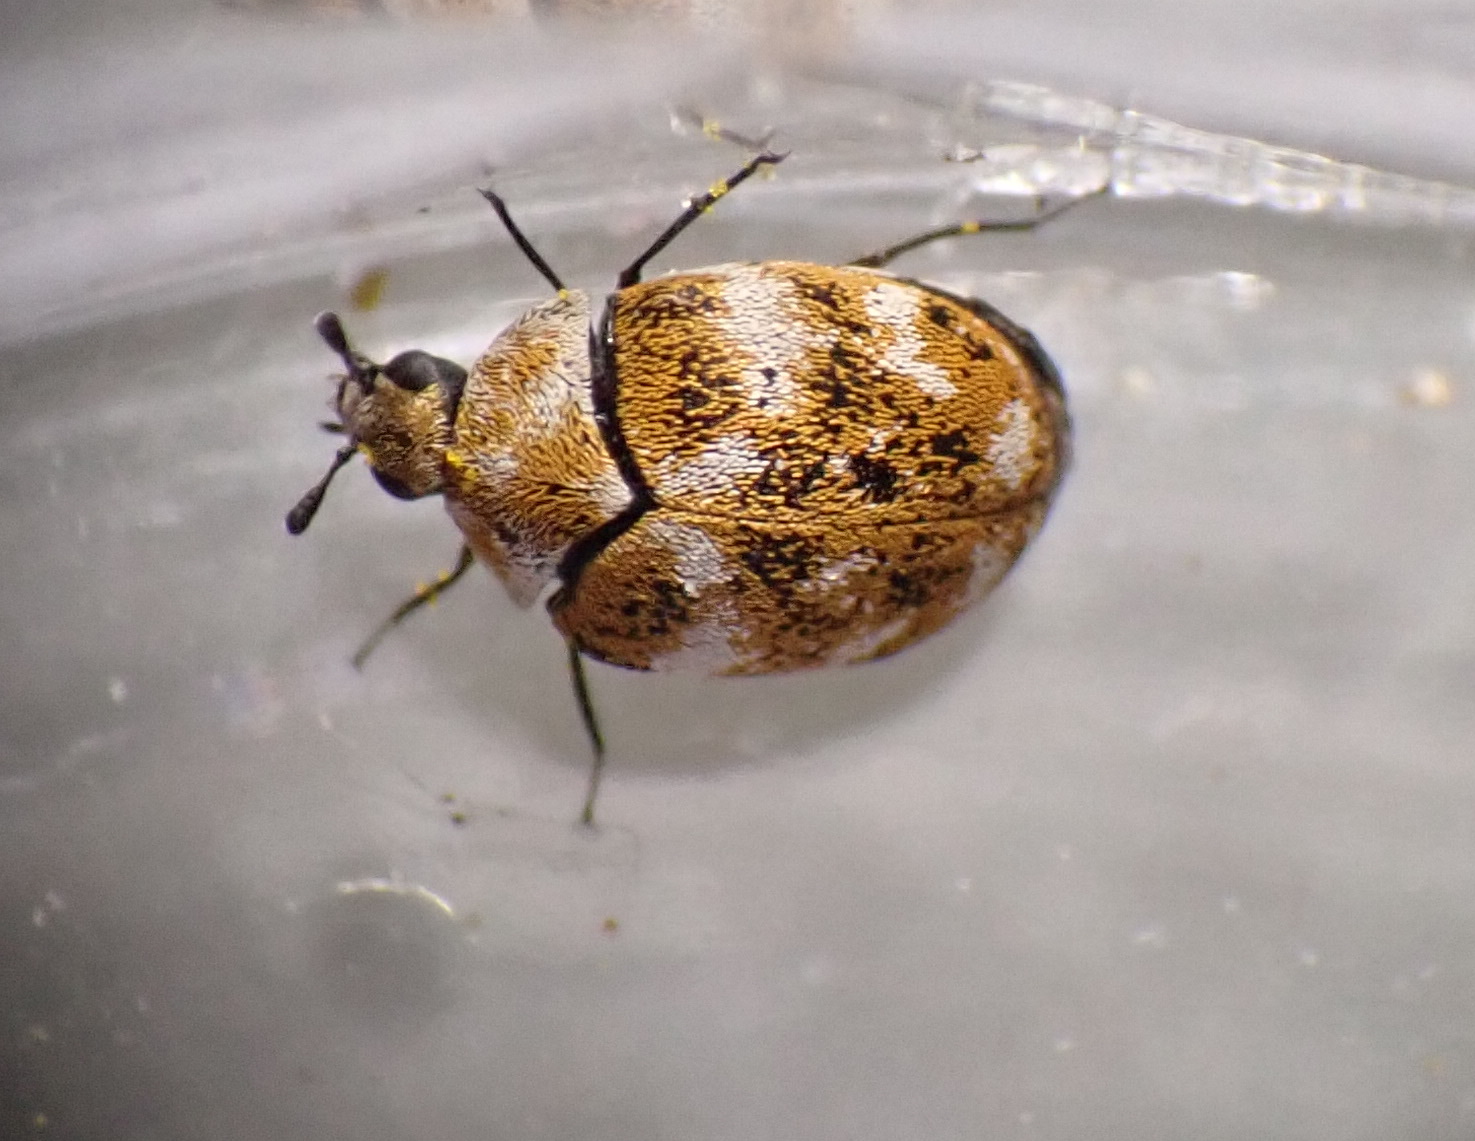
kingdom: Animalia
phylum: Arthropoda
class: Insecta
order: Coleoptera
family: Dermestidae
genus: Anthrenus
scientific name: Anthrenus verbasci
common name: Varied carpet beetle
